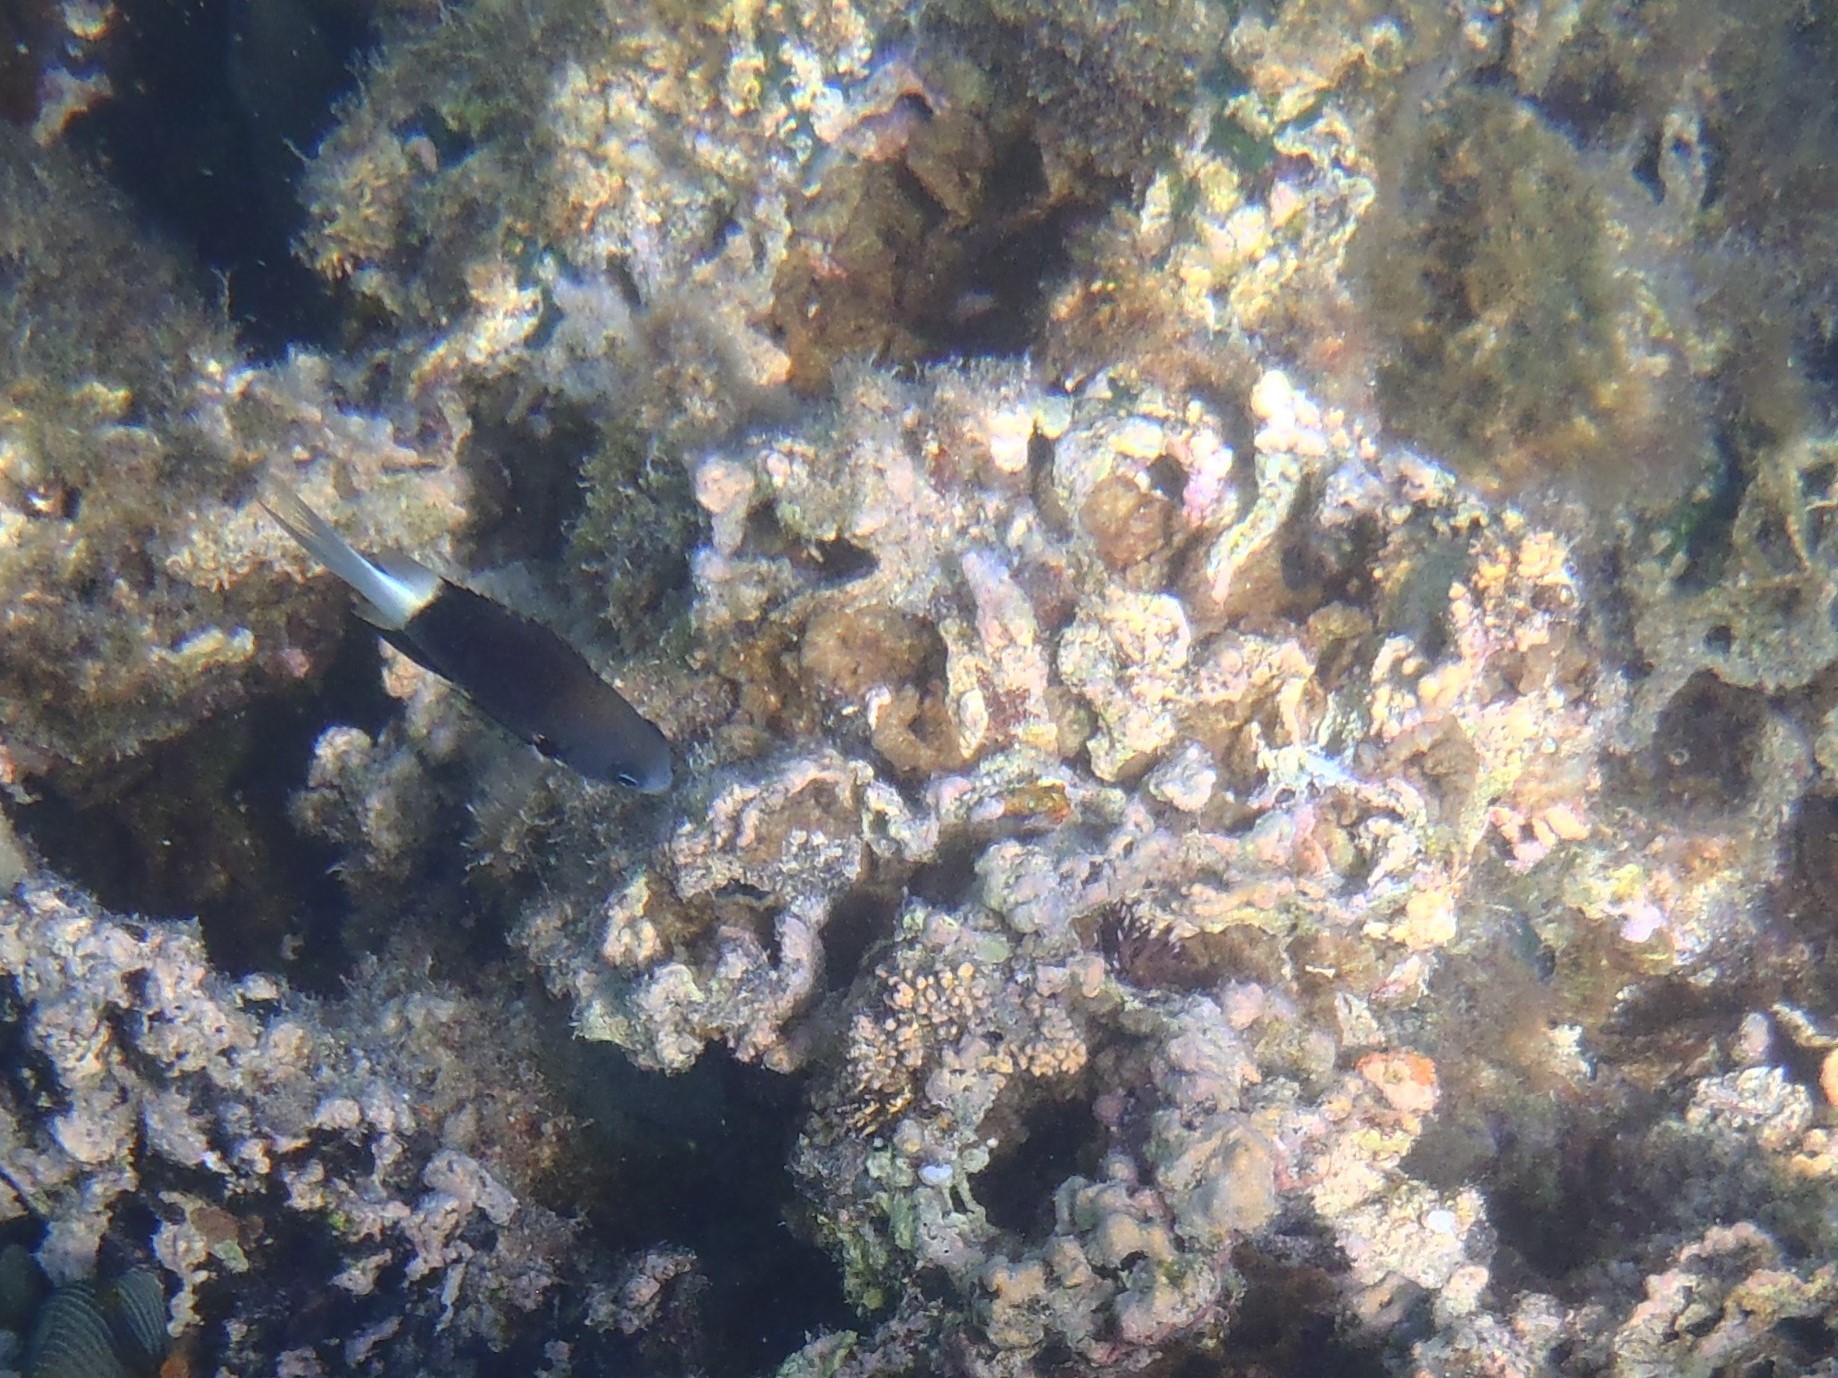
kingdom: Animalia
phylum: Chordata
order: Perciformes
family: Pomacentridae
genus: Pycnochromis
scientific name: Pycnochromis margaritifer
